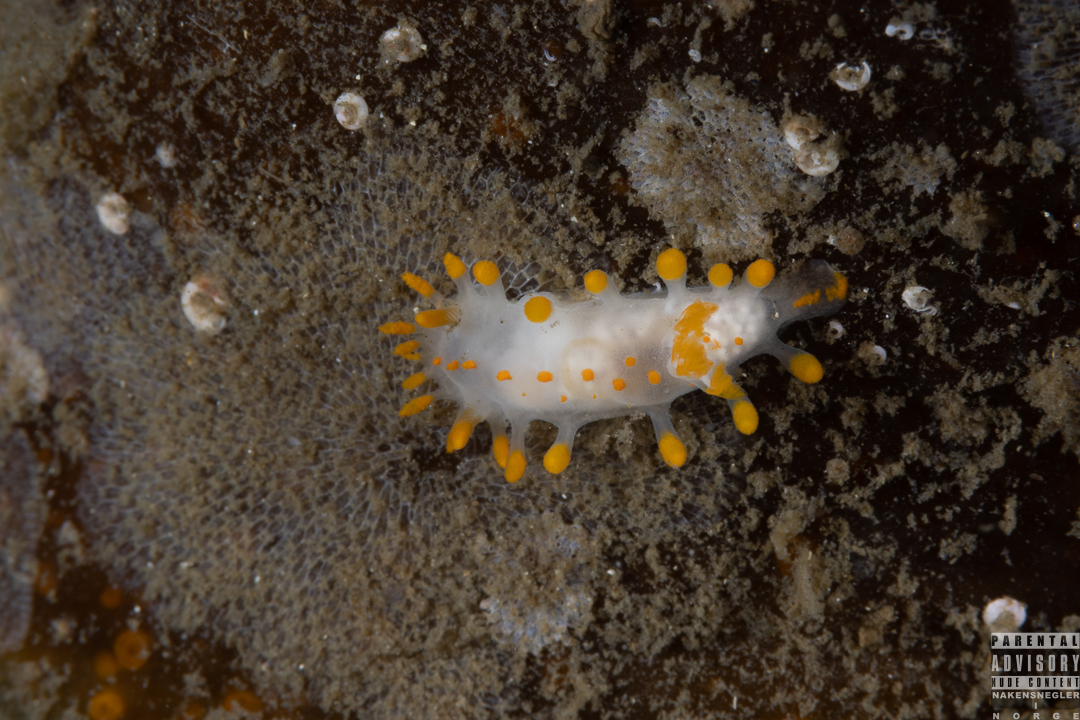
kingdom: Animalia
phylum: Mollusca
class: Gastropoda
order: Nudibranchia
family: Polyceridae
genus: Limacia
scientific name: Limacia clavigera
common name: Orange-clubbed sea slug
